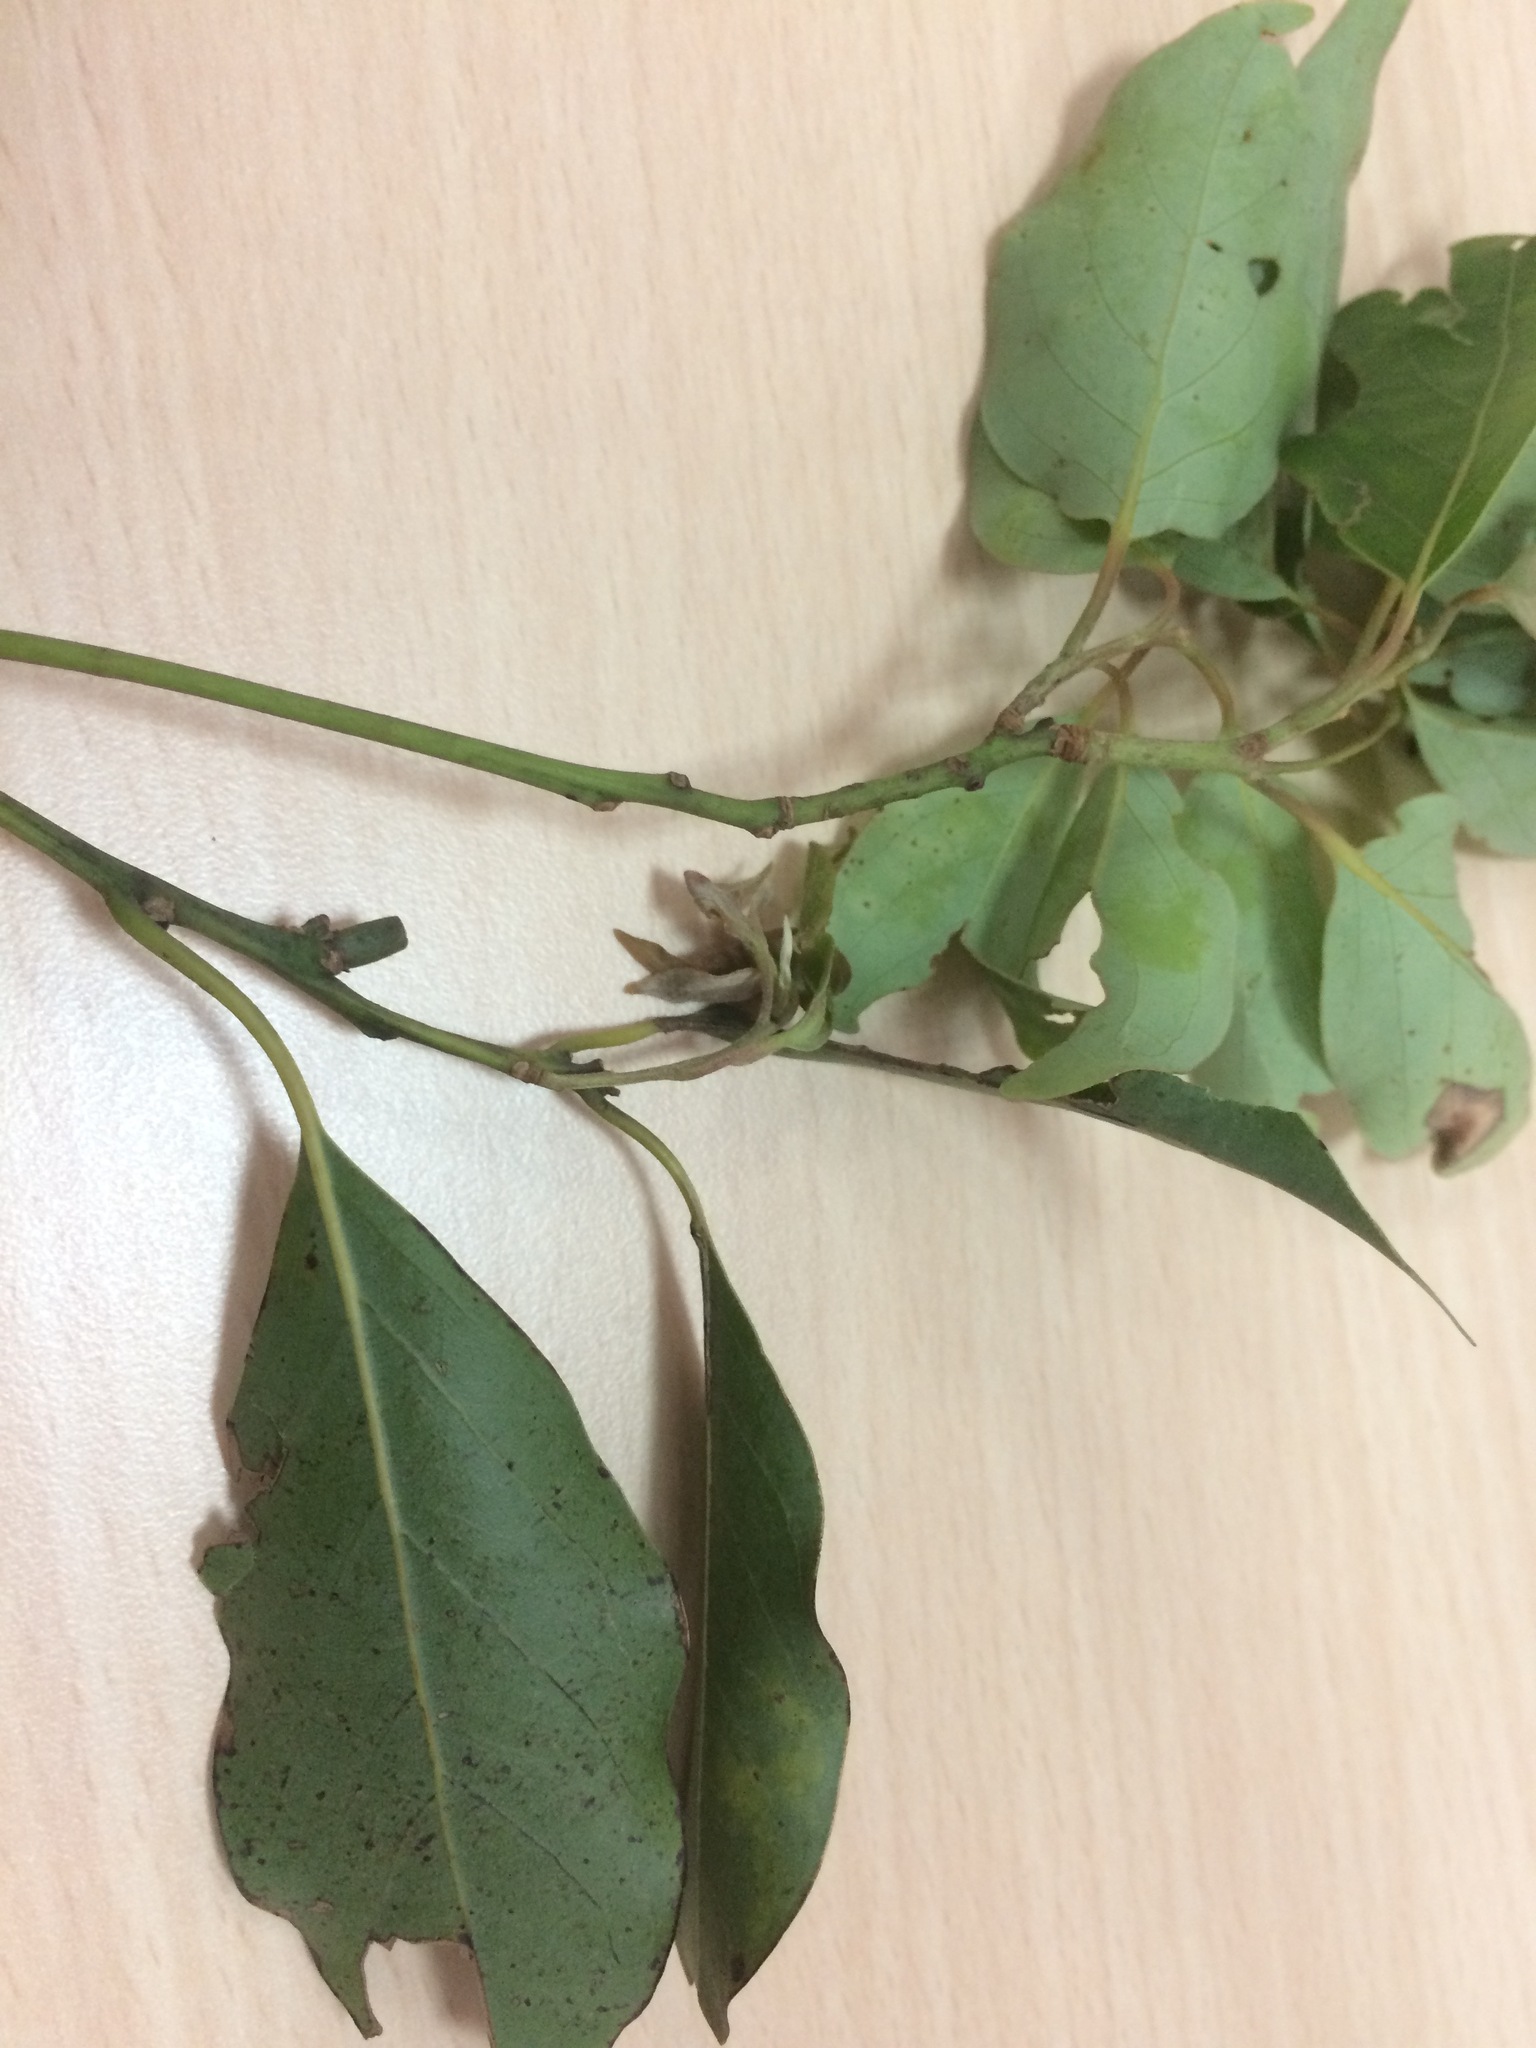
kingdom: Plantae
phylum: Tracheophyta
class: Magnoliopsida
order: Laurales
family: Lauraceae
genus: Cinnamomum
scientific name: Cinnamomum philippinense
